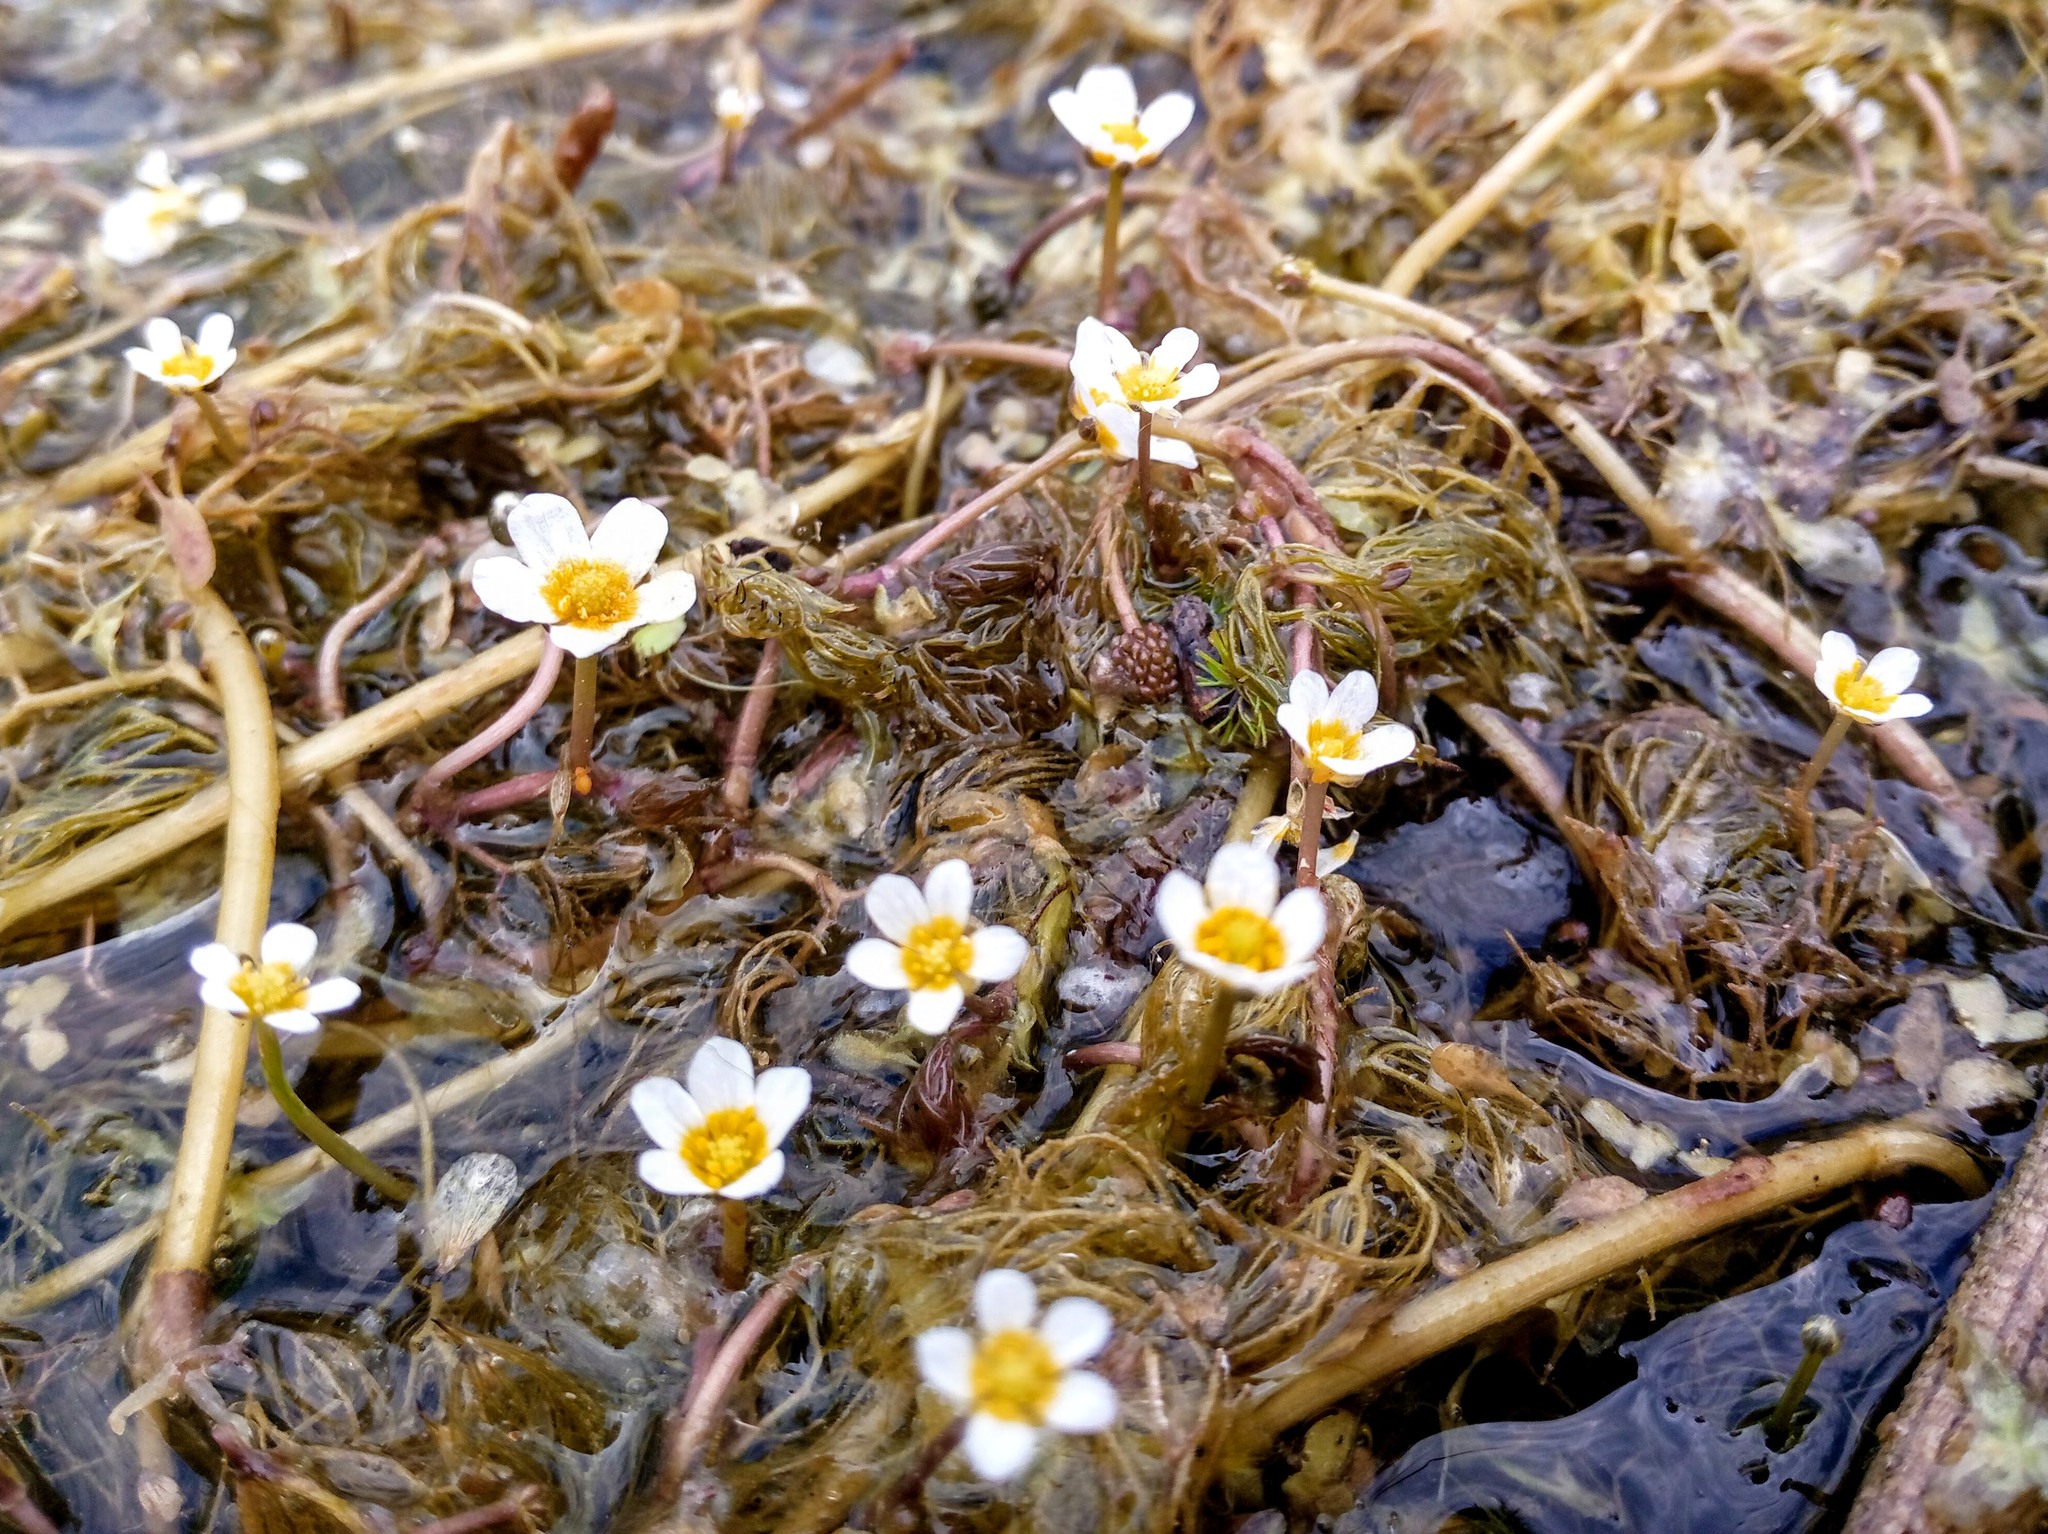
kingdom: Plantae
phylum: Tracheophyta
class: Magnoliopsida
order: Ranunculales
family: Ranunculaceae
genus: Ranunculus
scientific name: Ranunculus trichophyllus
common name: Thread-leaved water-crowfoot
